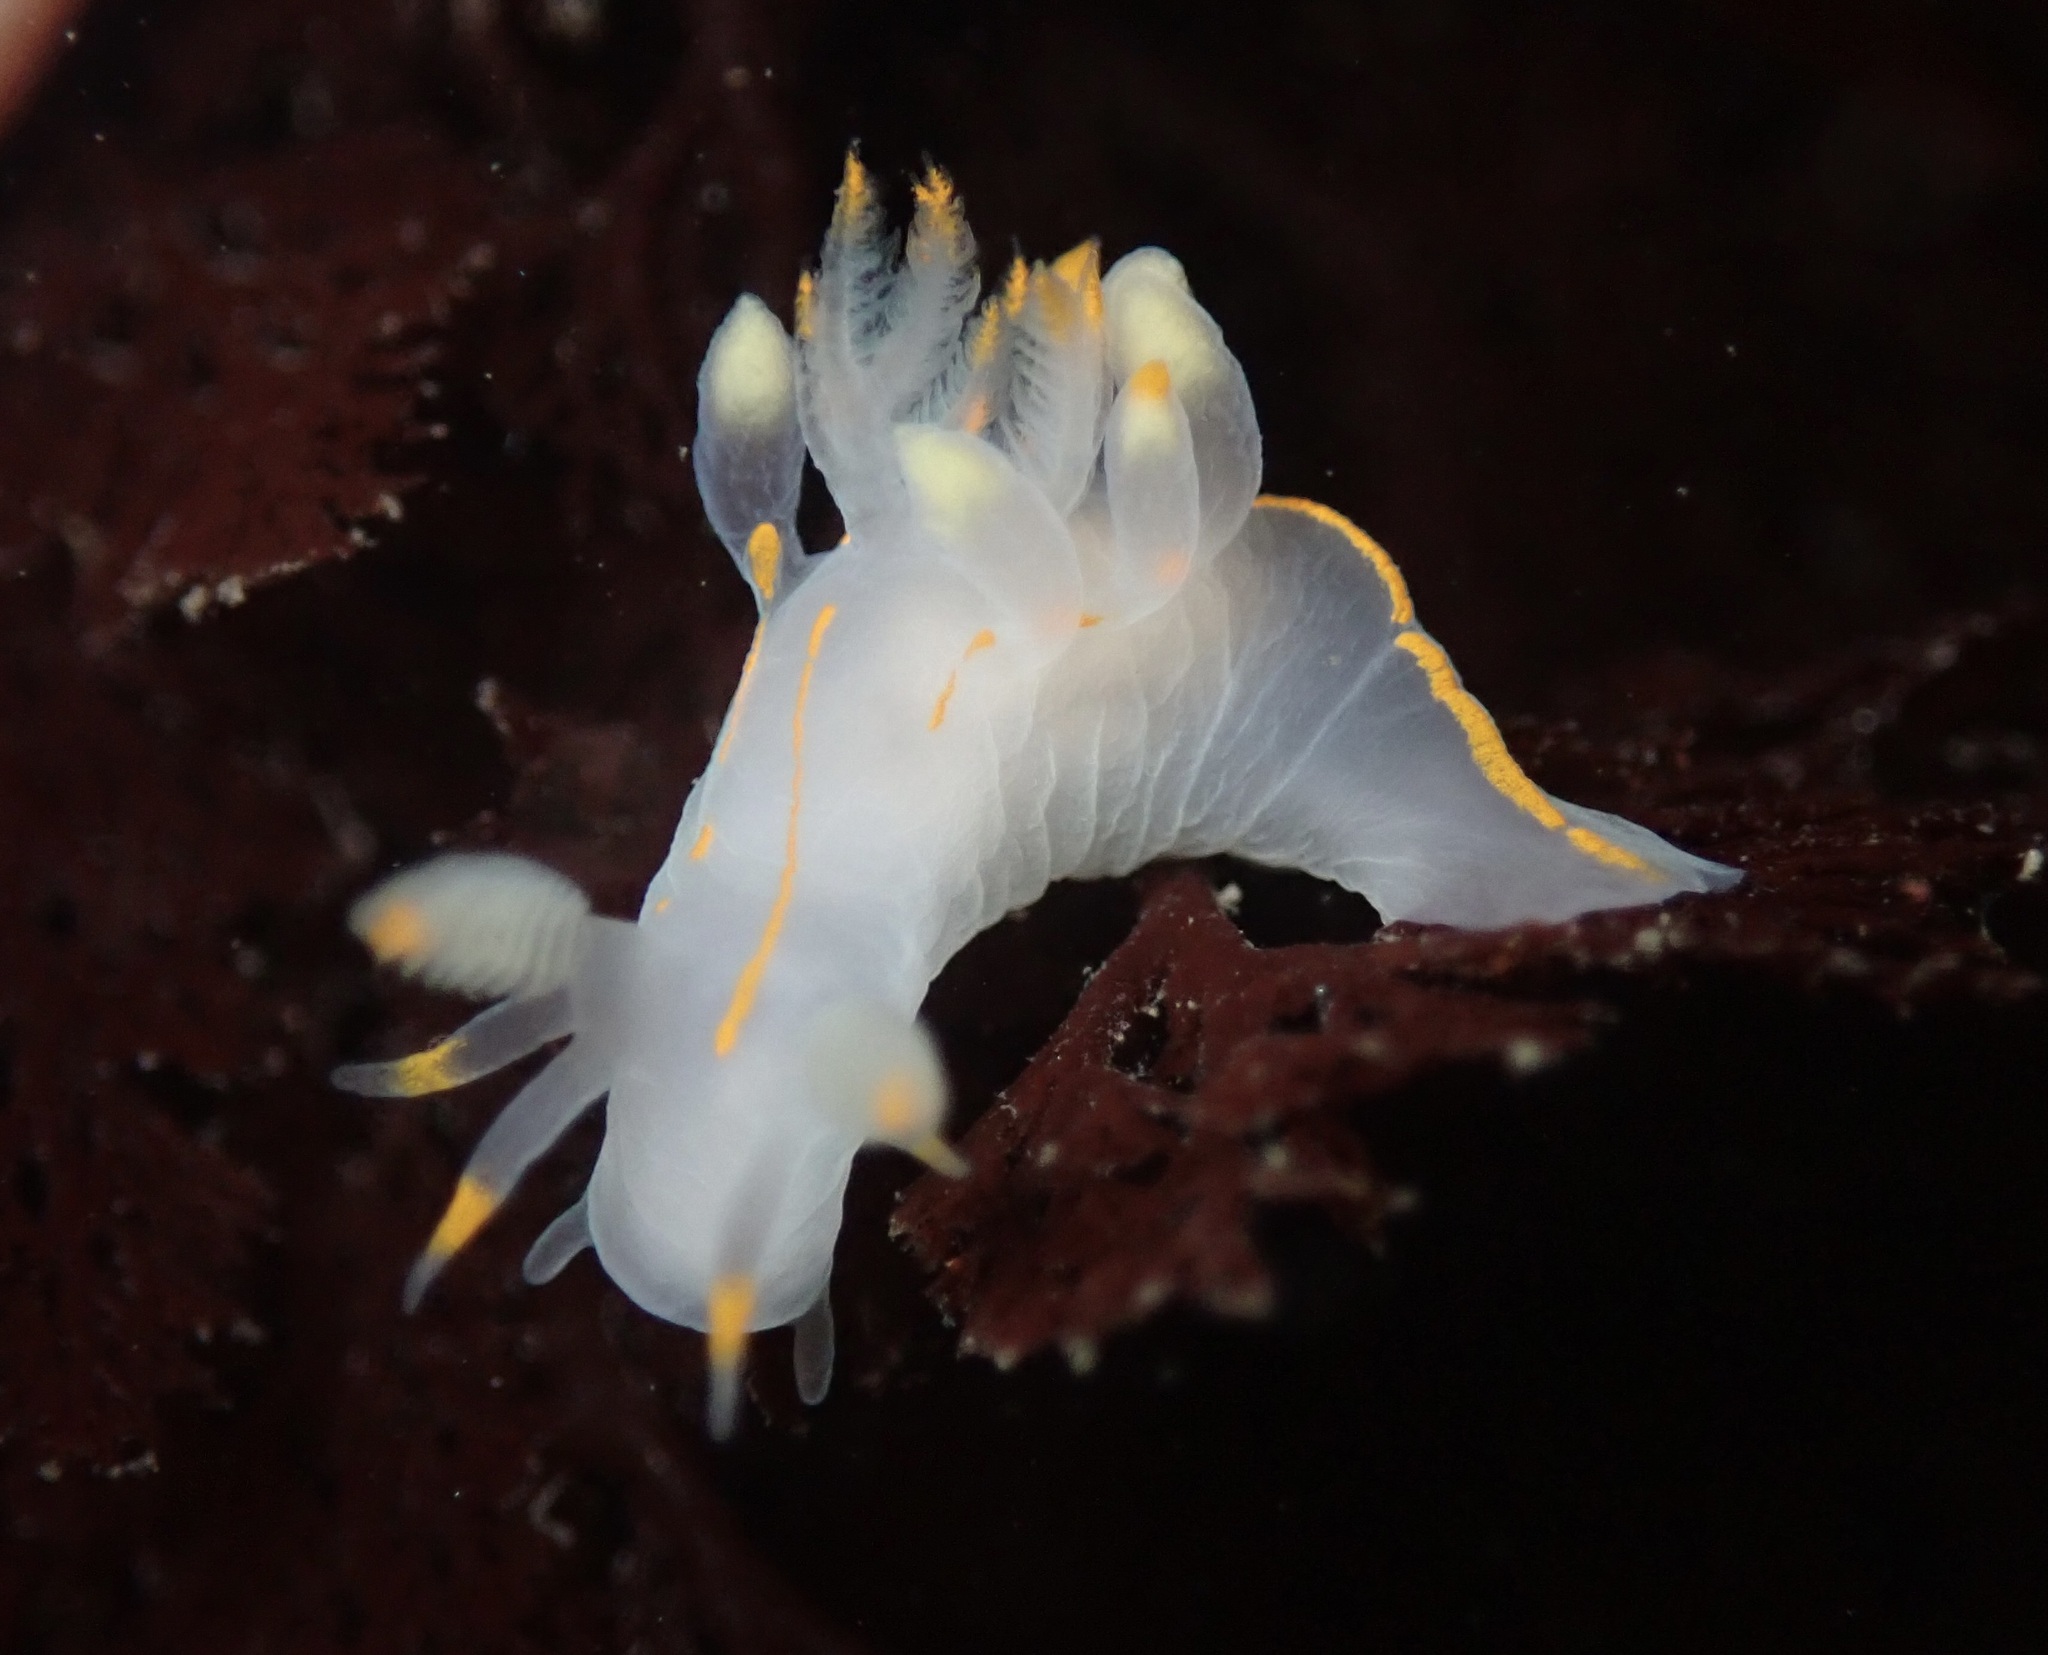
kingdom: Animalia
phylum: Mollusca
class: Gastropoda
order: Nudibranchia
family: Goniodorididae
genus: Ancula
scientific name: Ancula pacifica
